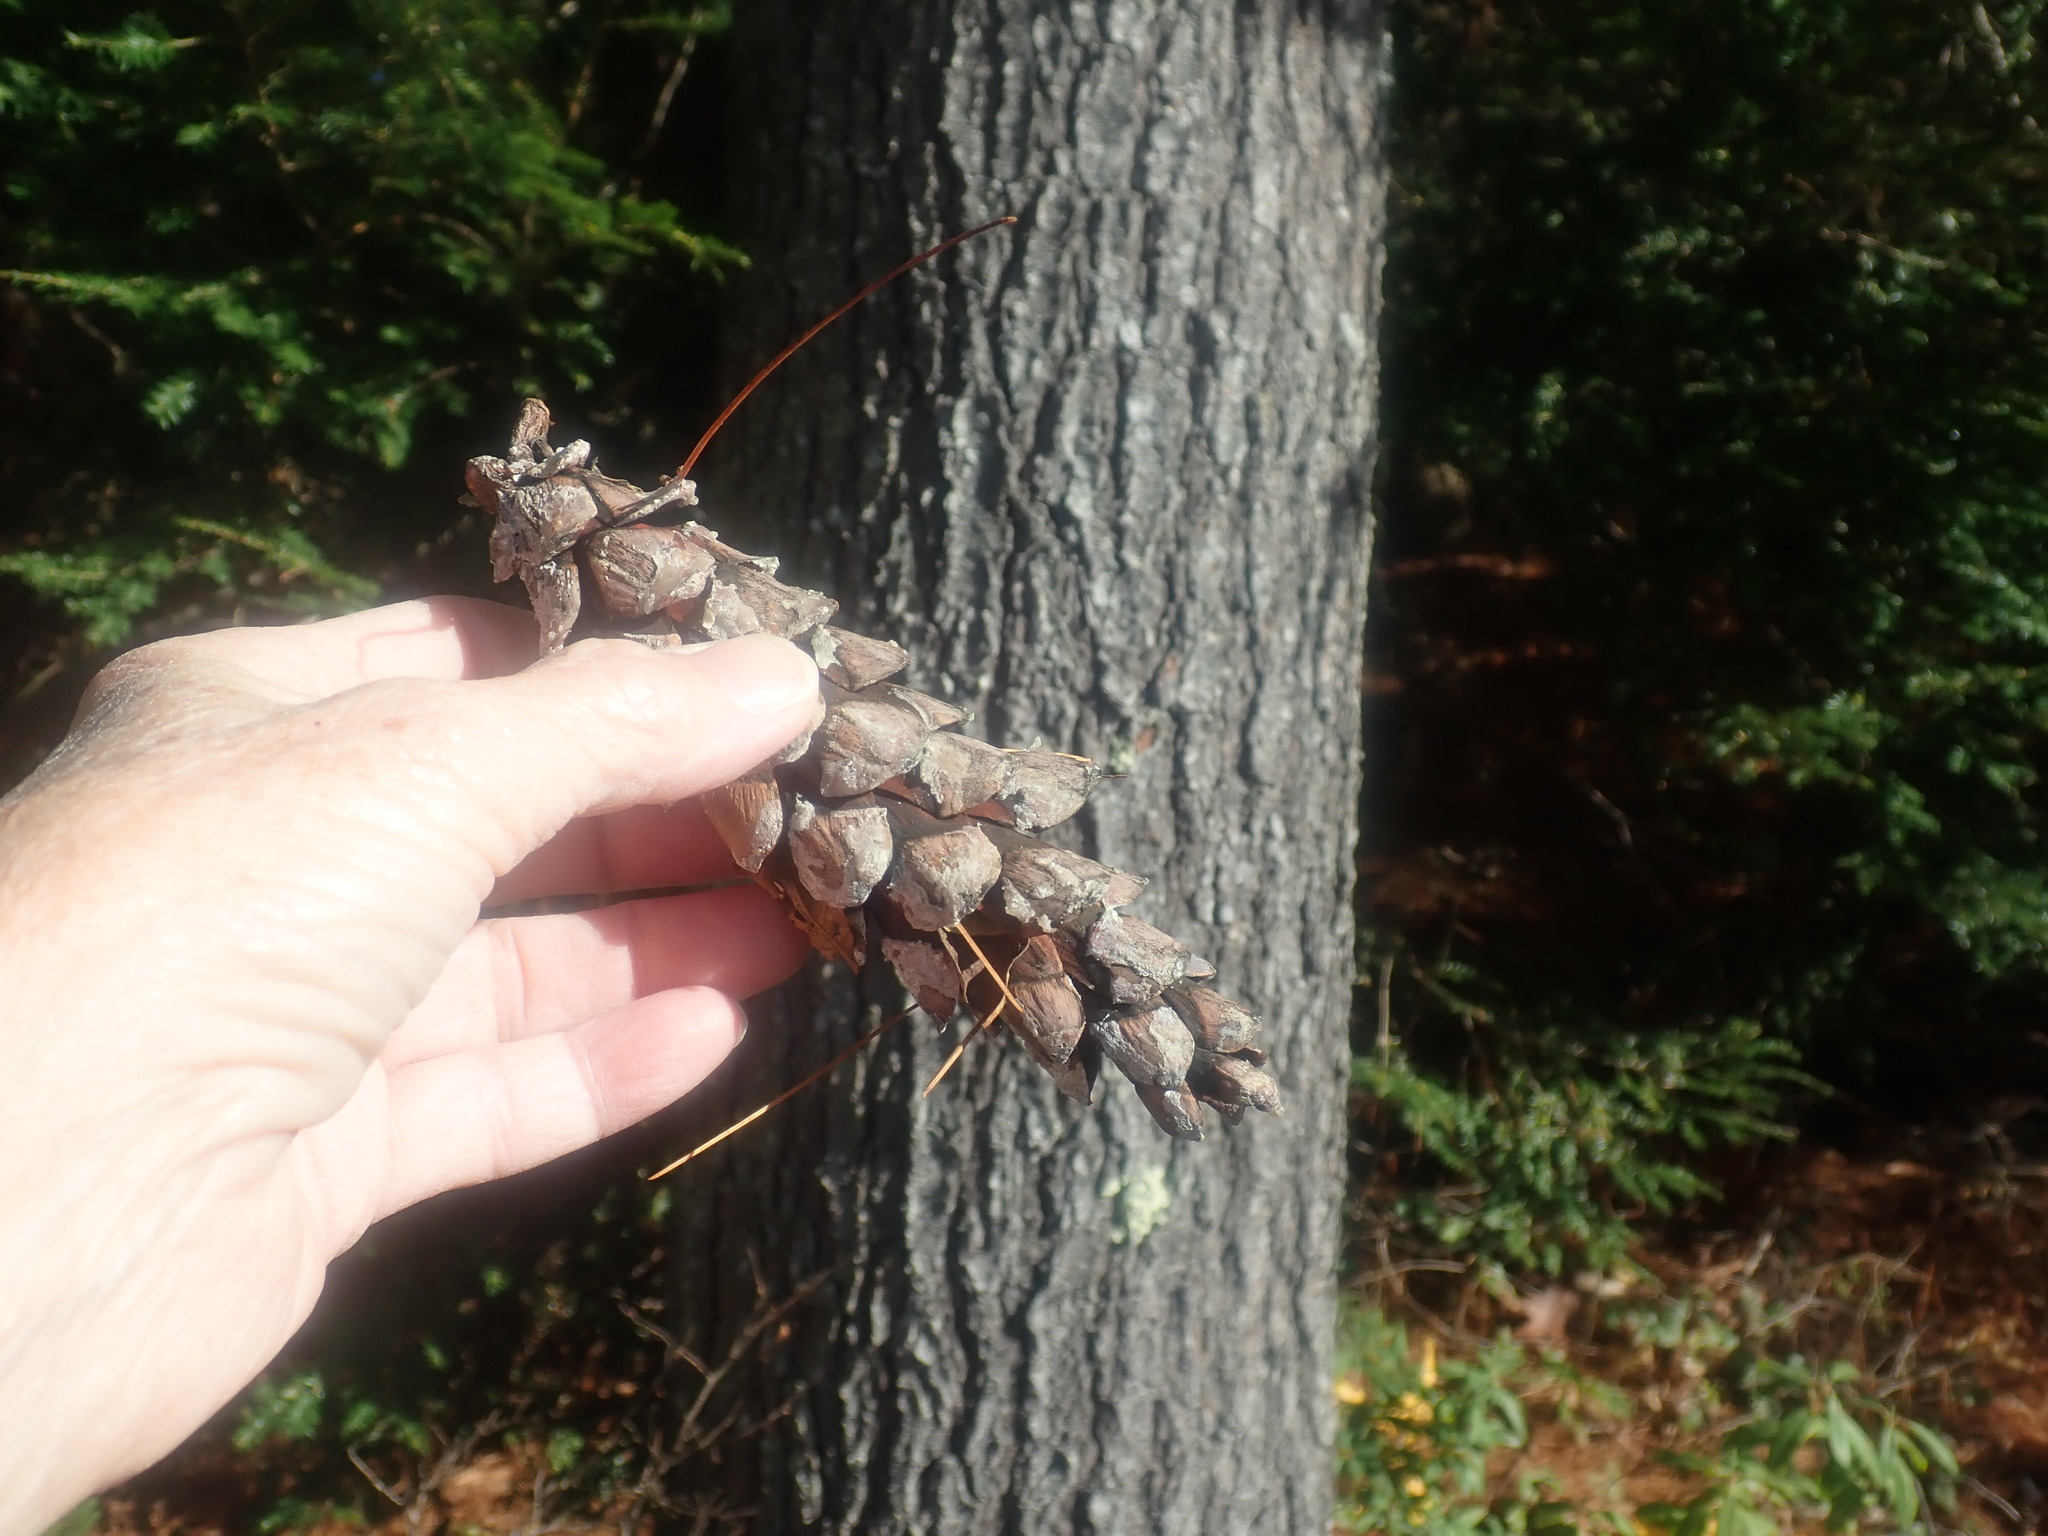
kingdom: Plantae
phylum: Tracheophyta
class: Pinopsida
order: Pinales
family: Pinaceae
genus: Pinus
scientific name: Pinus strobus
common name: Weymouth pine
